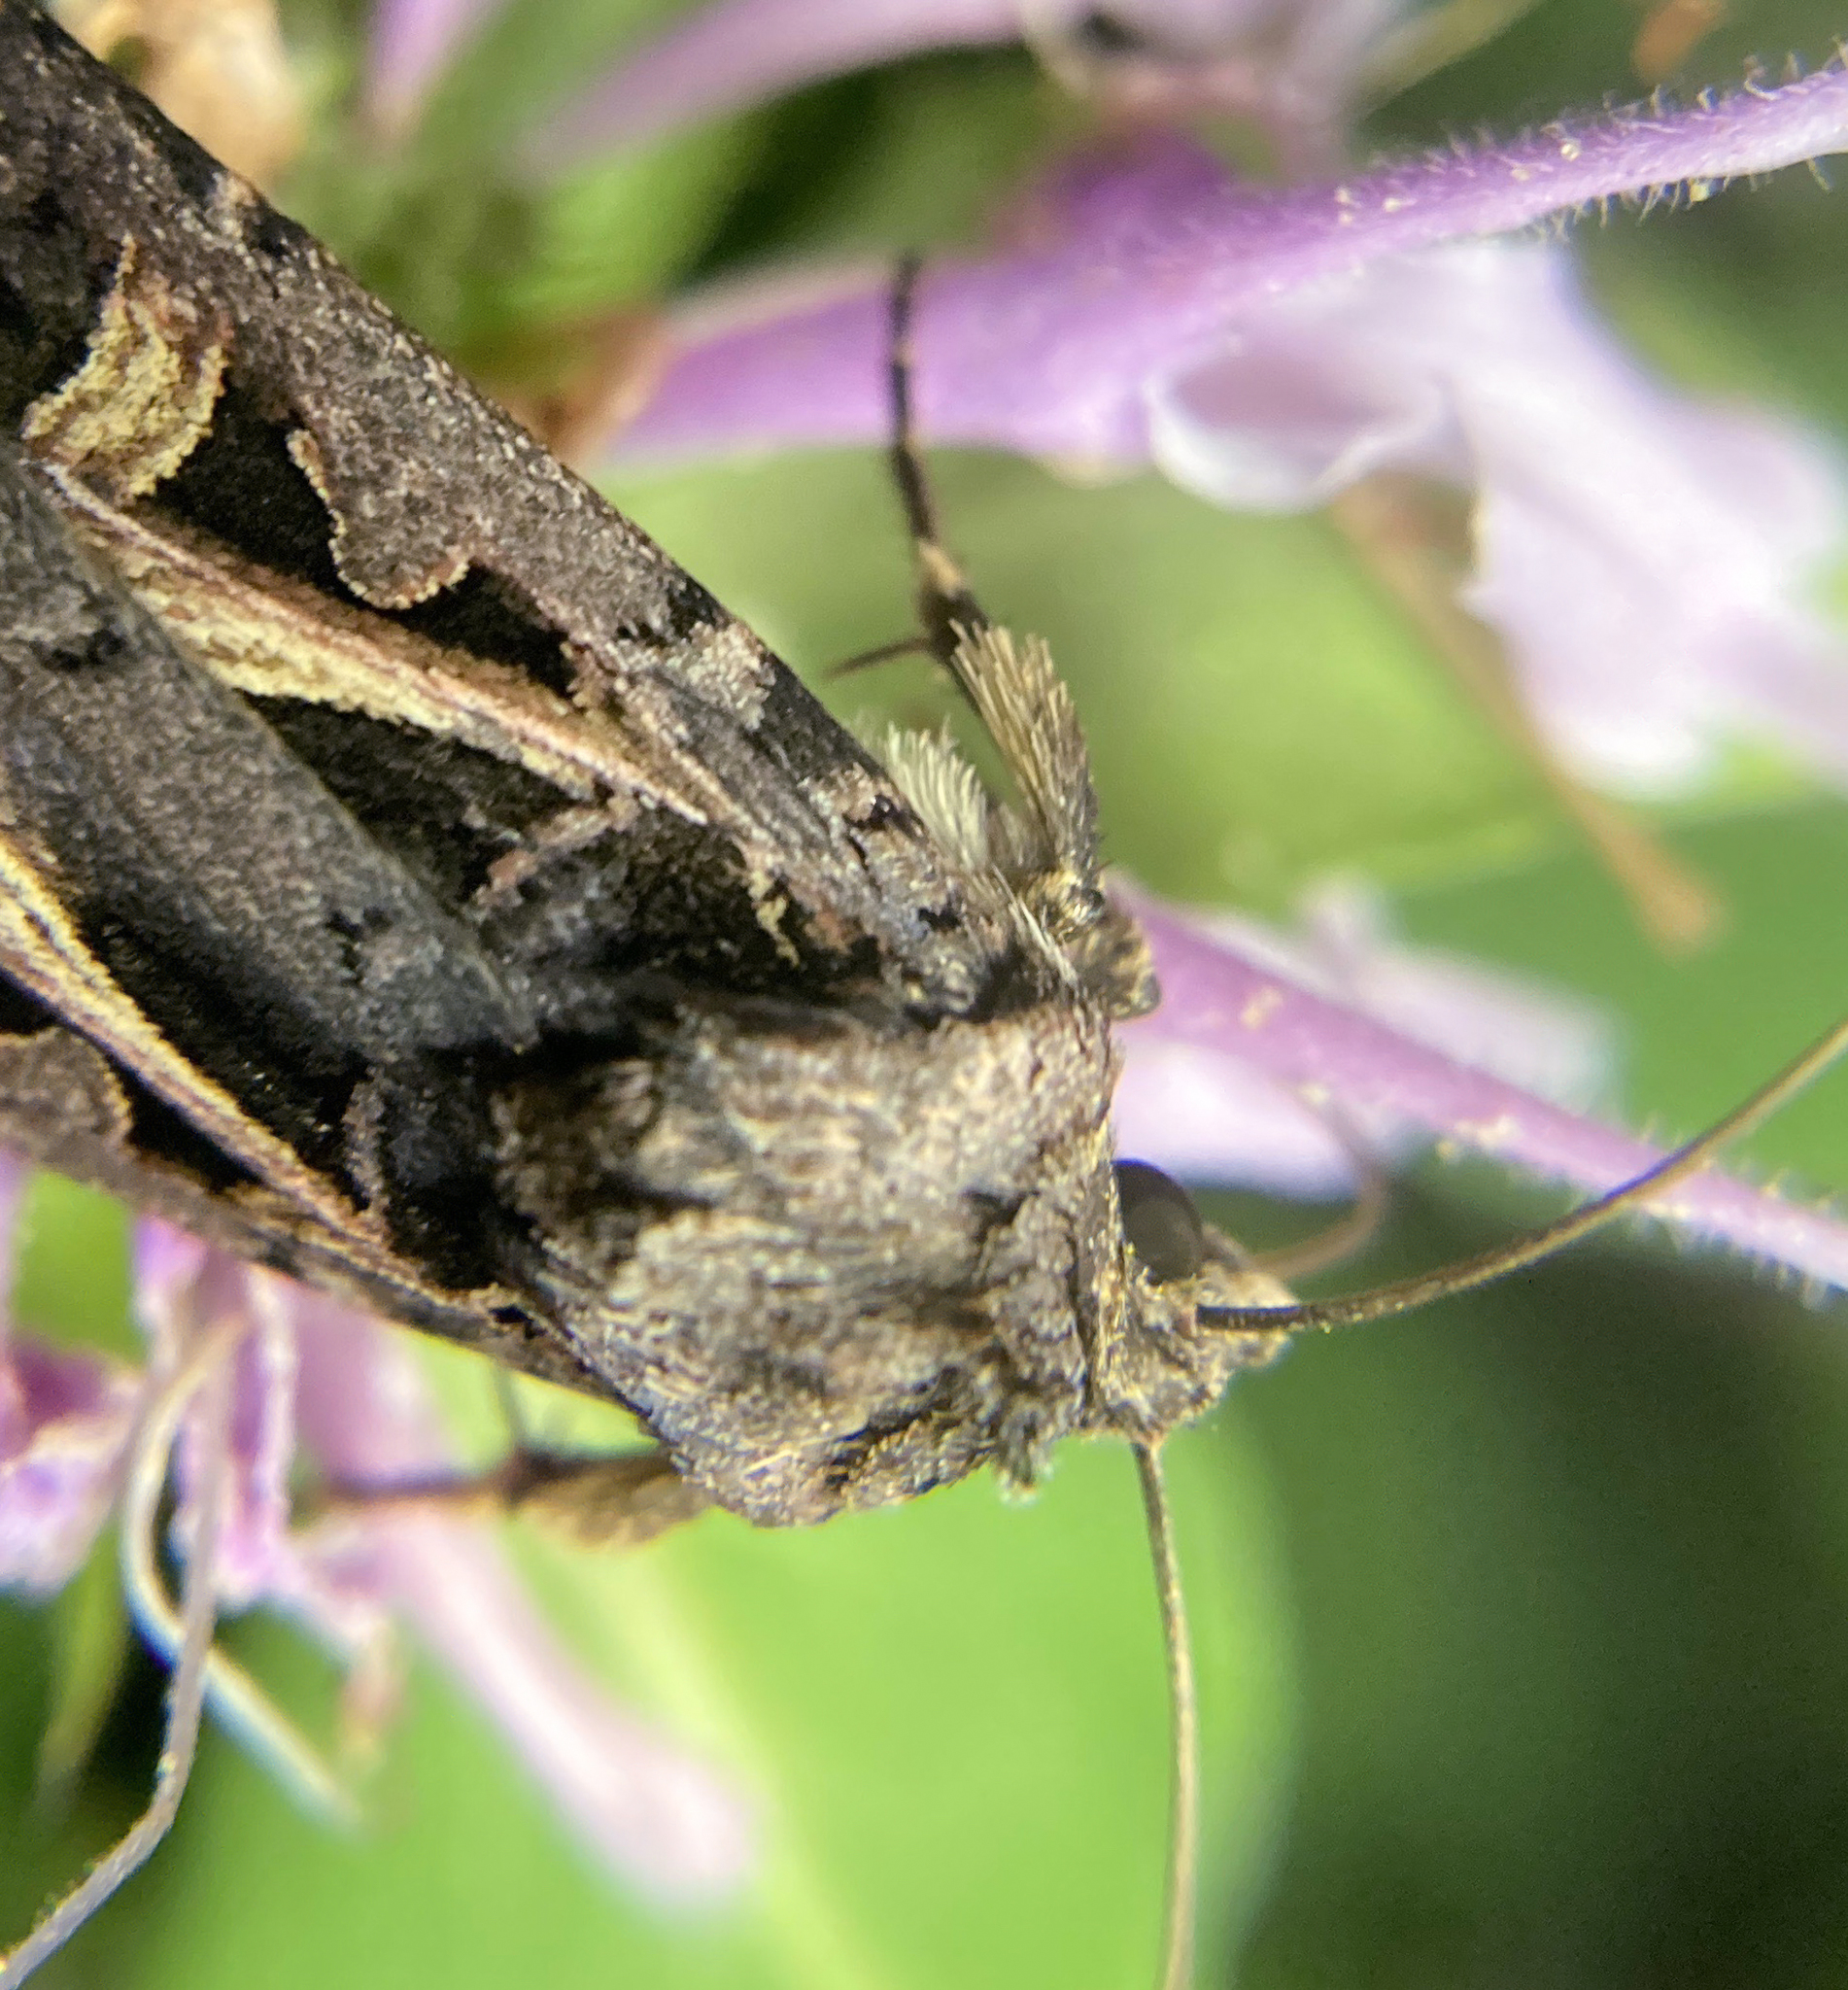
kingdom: Animalia
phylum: Arthropoda
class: Insecta
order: Lepidoptera
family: Noctuidae
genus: Feltia
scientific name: Feltia herilis
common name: Master's dart
